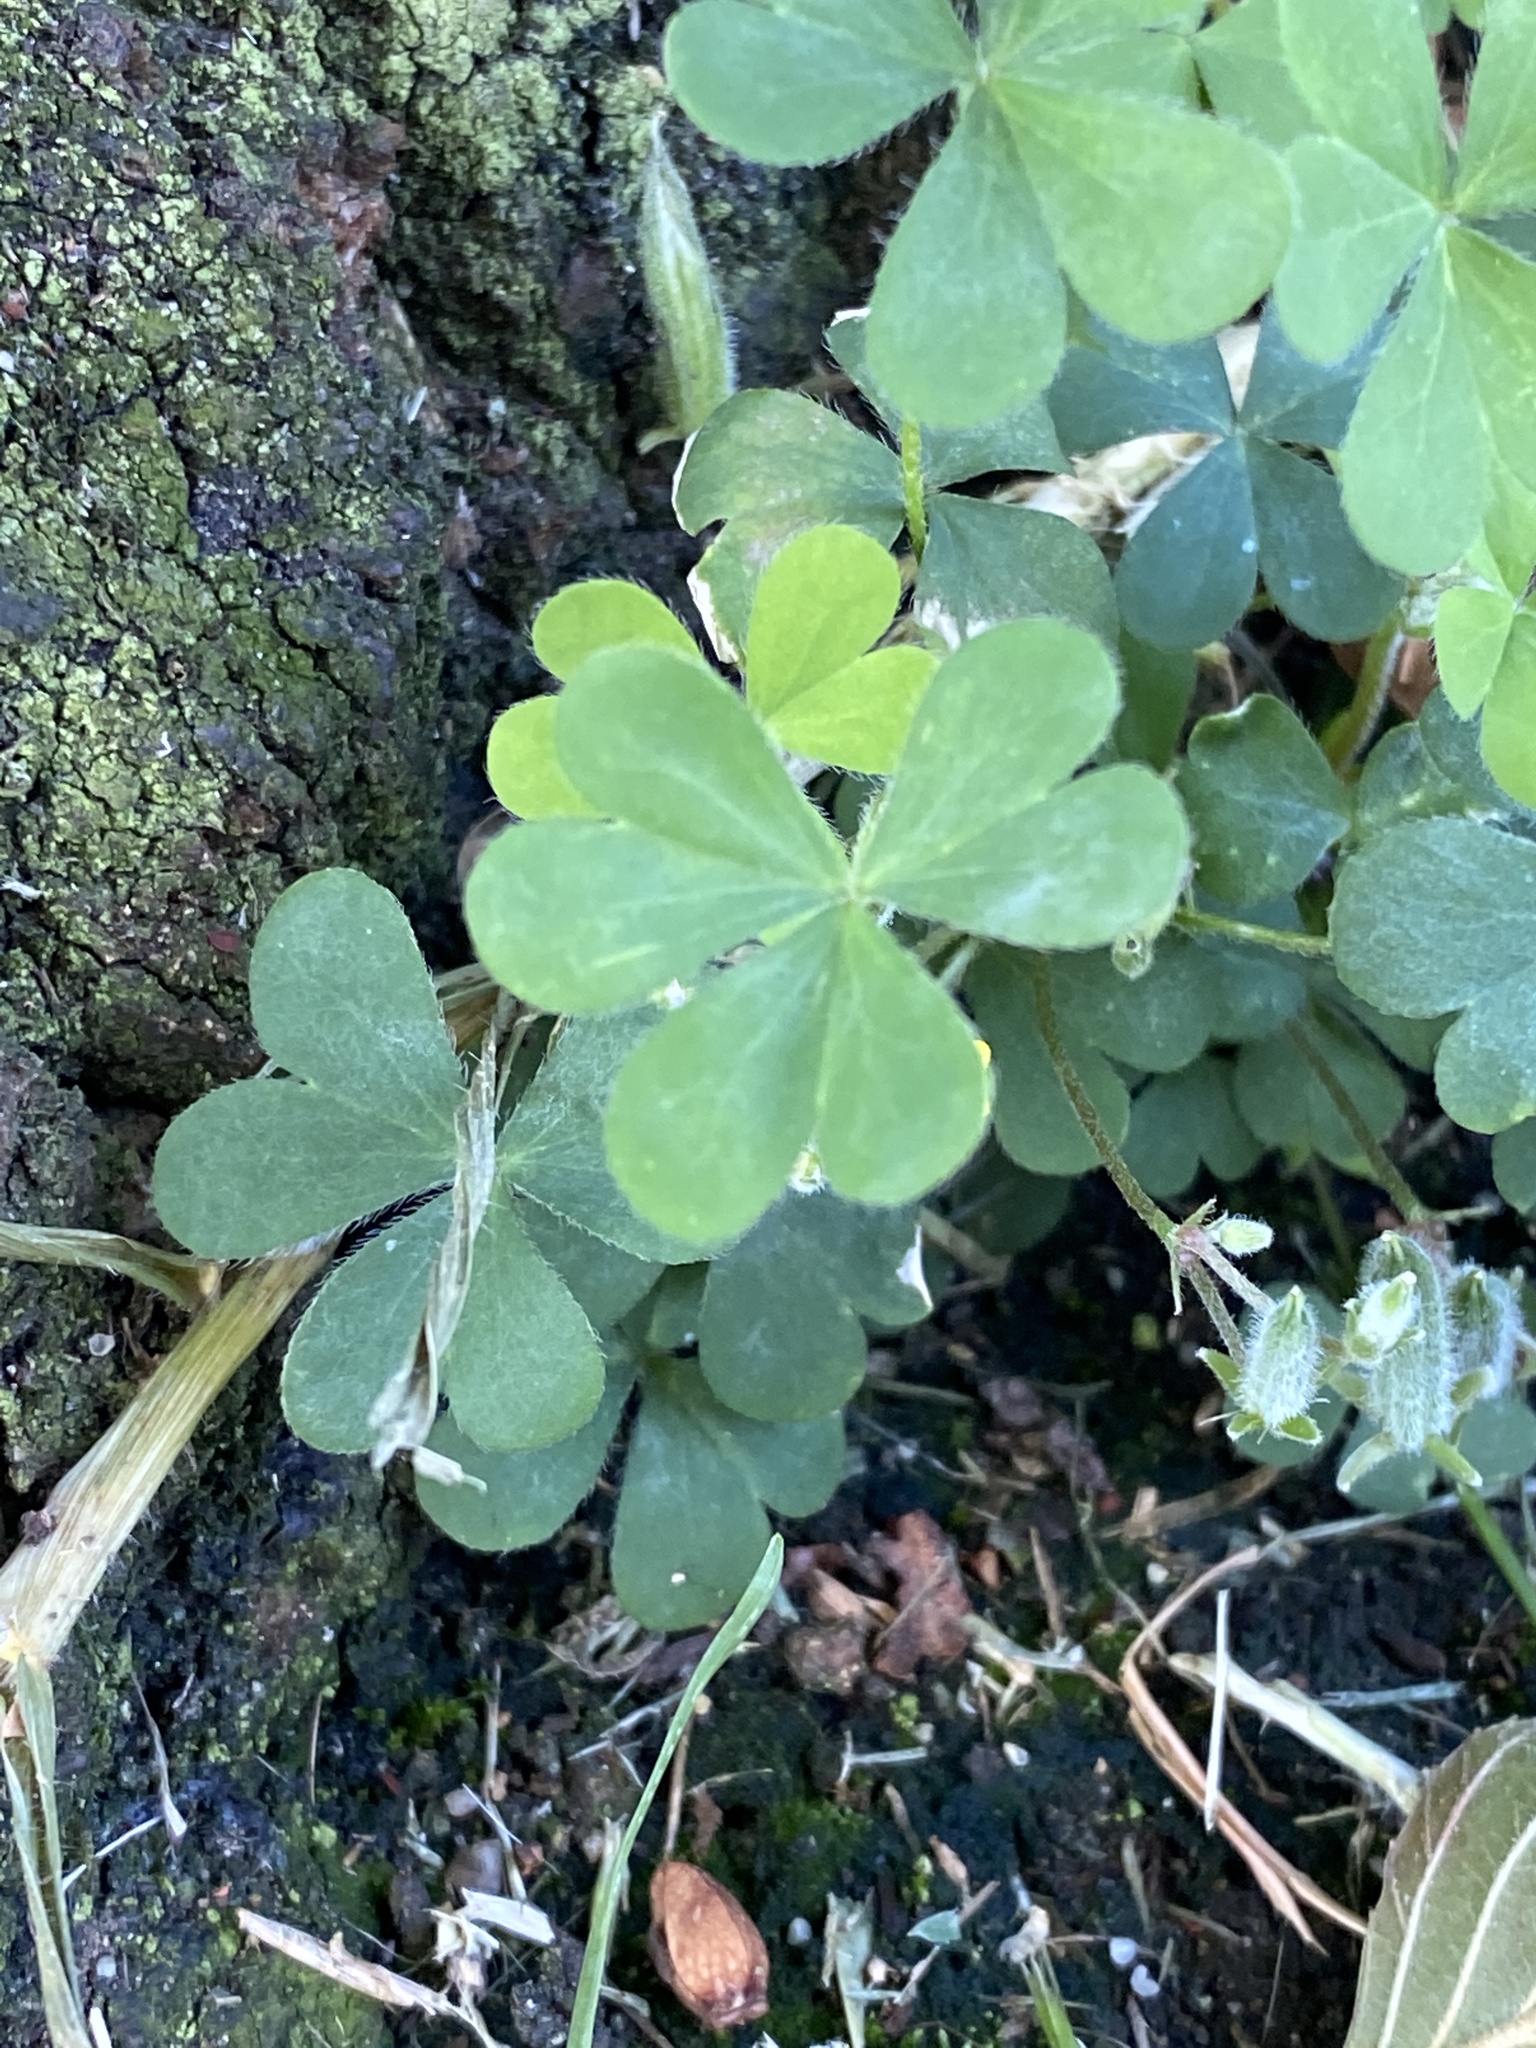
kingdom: Plantae
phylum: Tracheophyta
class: Magnoliopsida
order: Oxalidales
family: Oxalidaceae
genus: Oxalis
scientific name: Oxalis corniculata
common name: Procumbent yellow-sorrel
